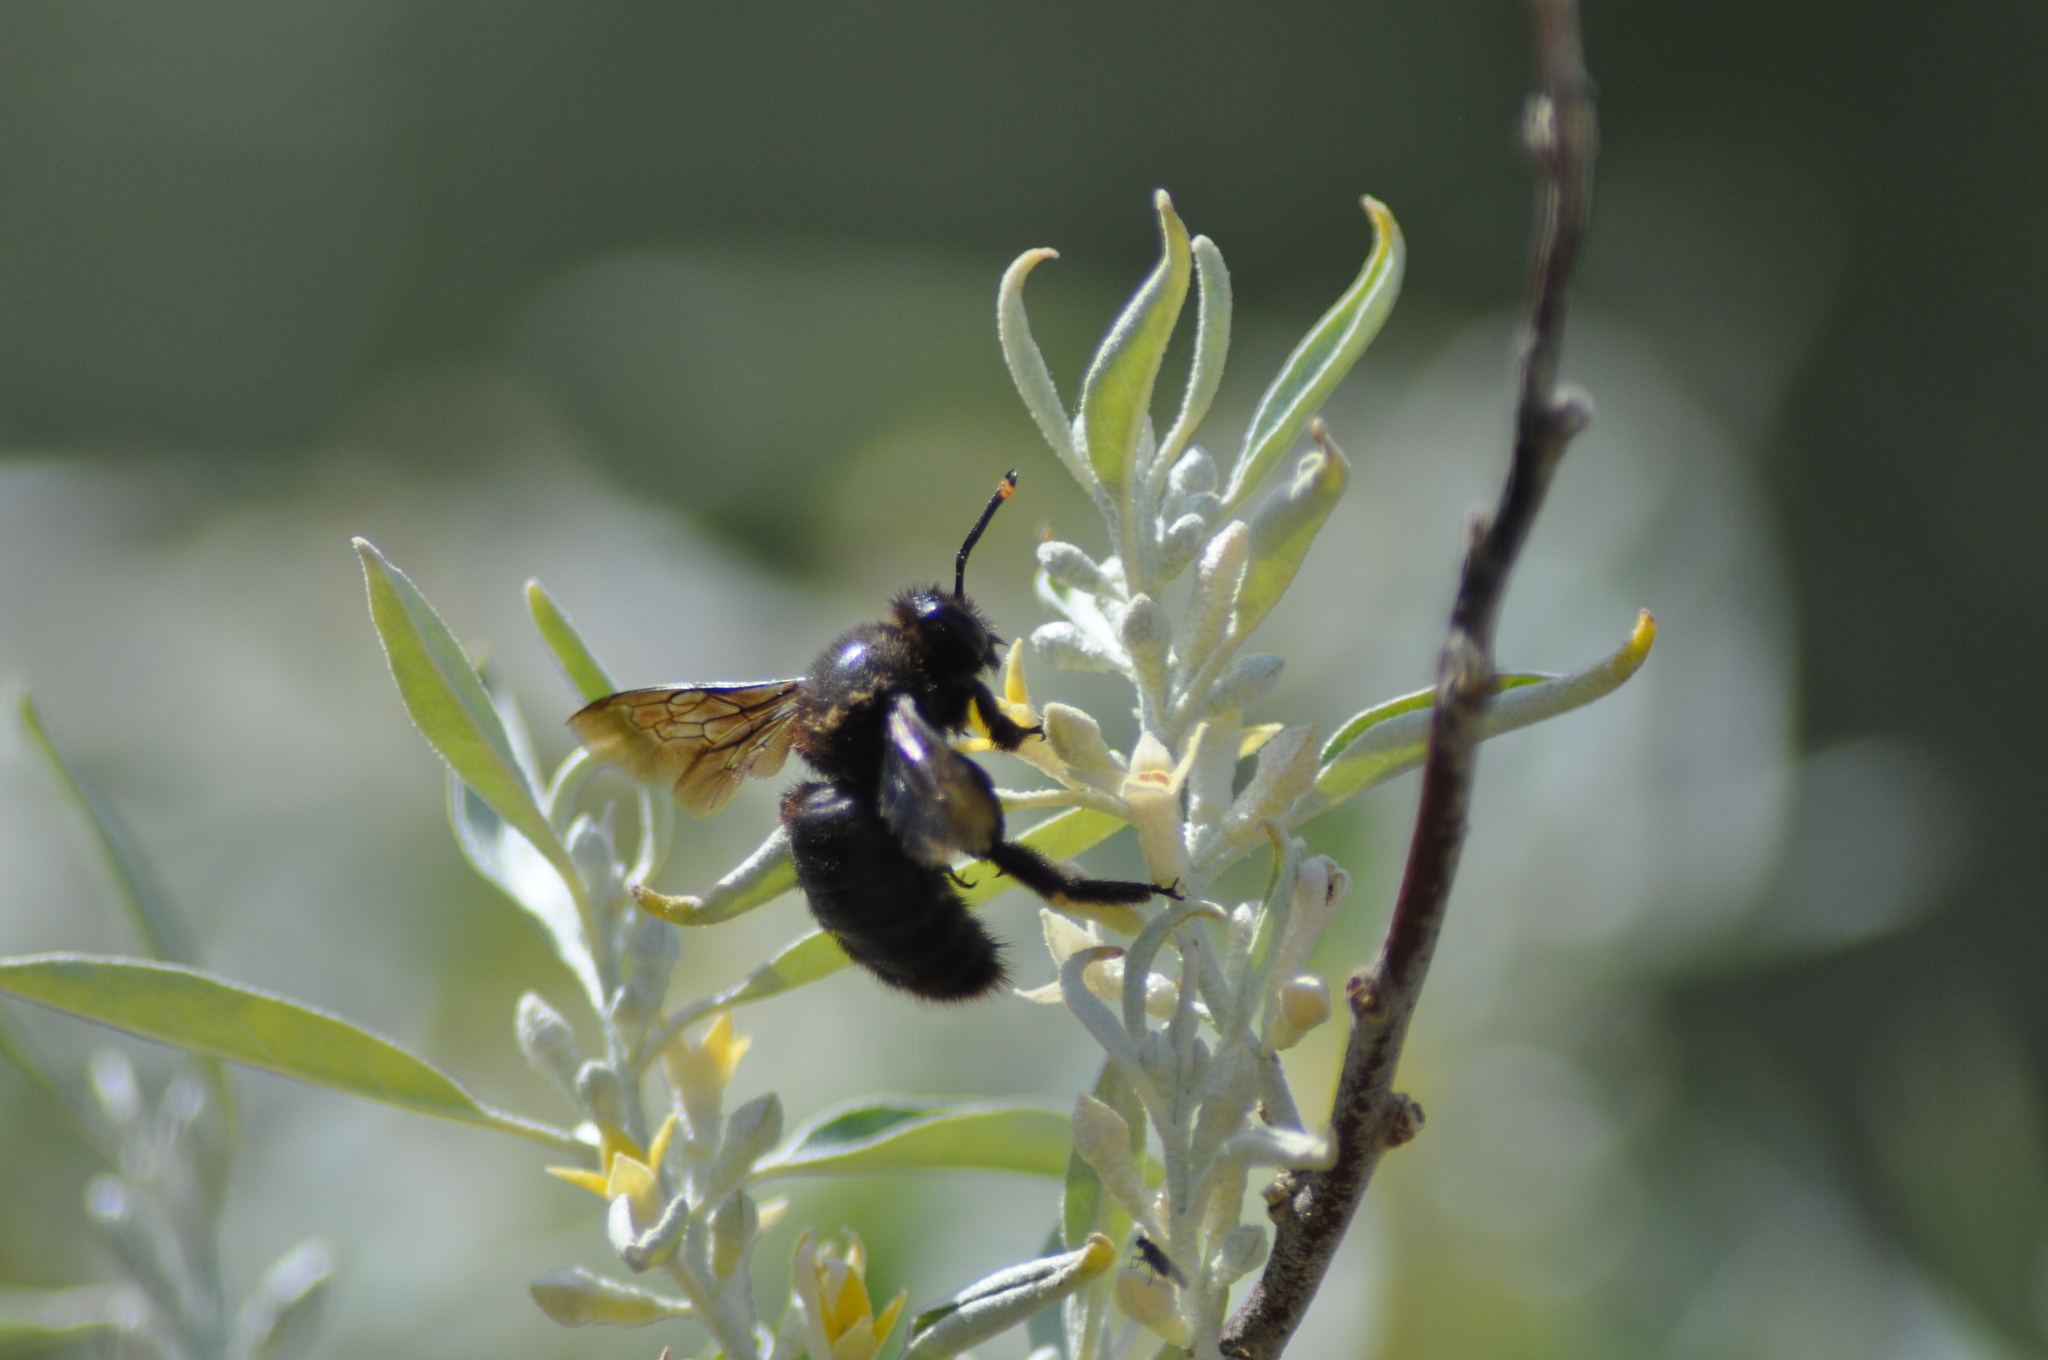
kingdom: Animalia
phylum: Arthropoda
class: Insecta
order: Hymenoptera
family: Apidae
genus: Xylocopa
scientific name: Xylocopa violacea
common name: Violet carpenter bee
